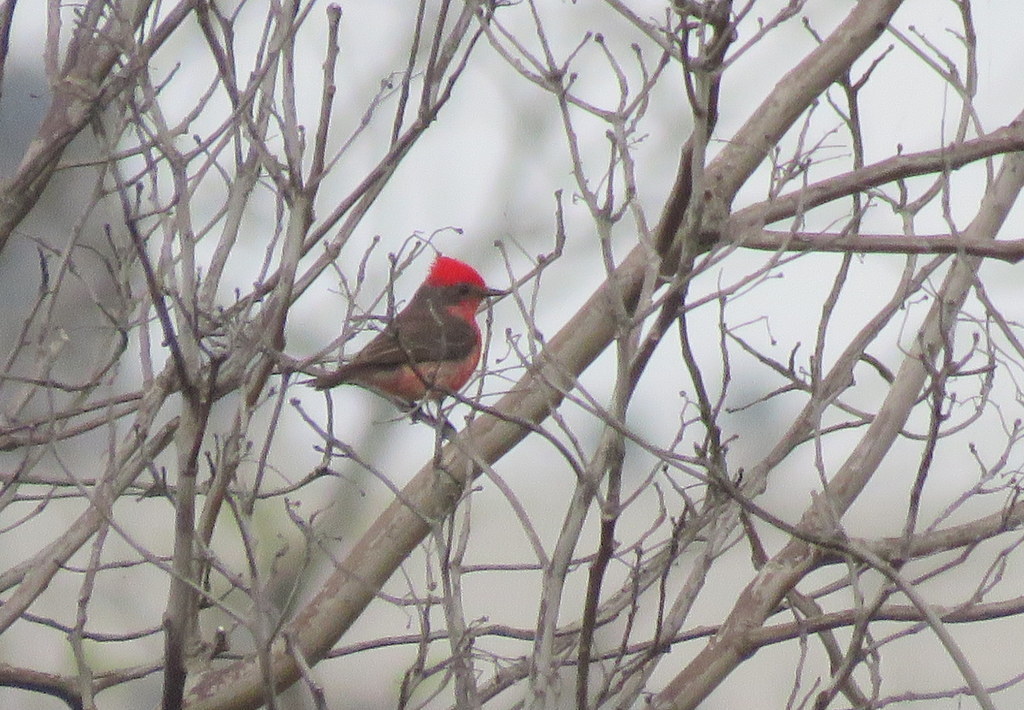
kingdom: Animalia
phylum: Chordata
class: Aves
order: Passeriformes
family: Tyrannidae
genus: Pyrocephalus
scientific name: Pyrocephalus rubinus
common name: Vermilion flycatcher
